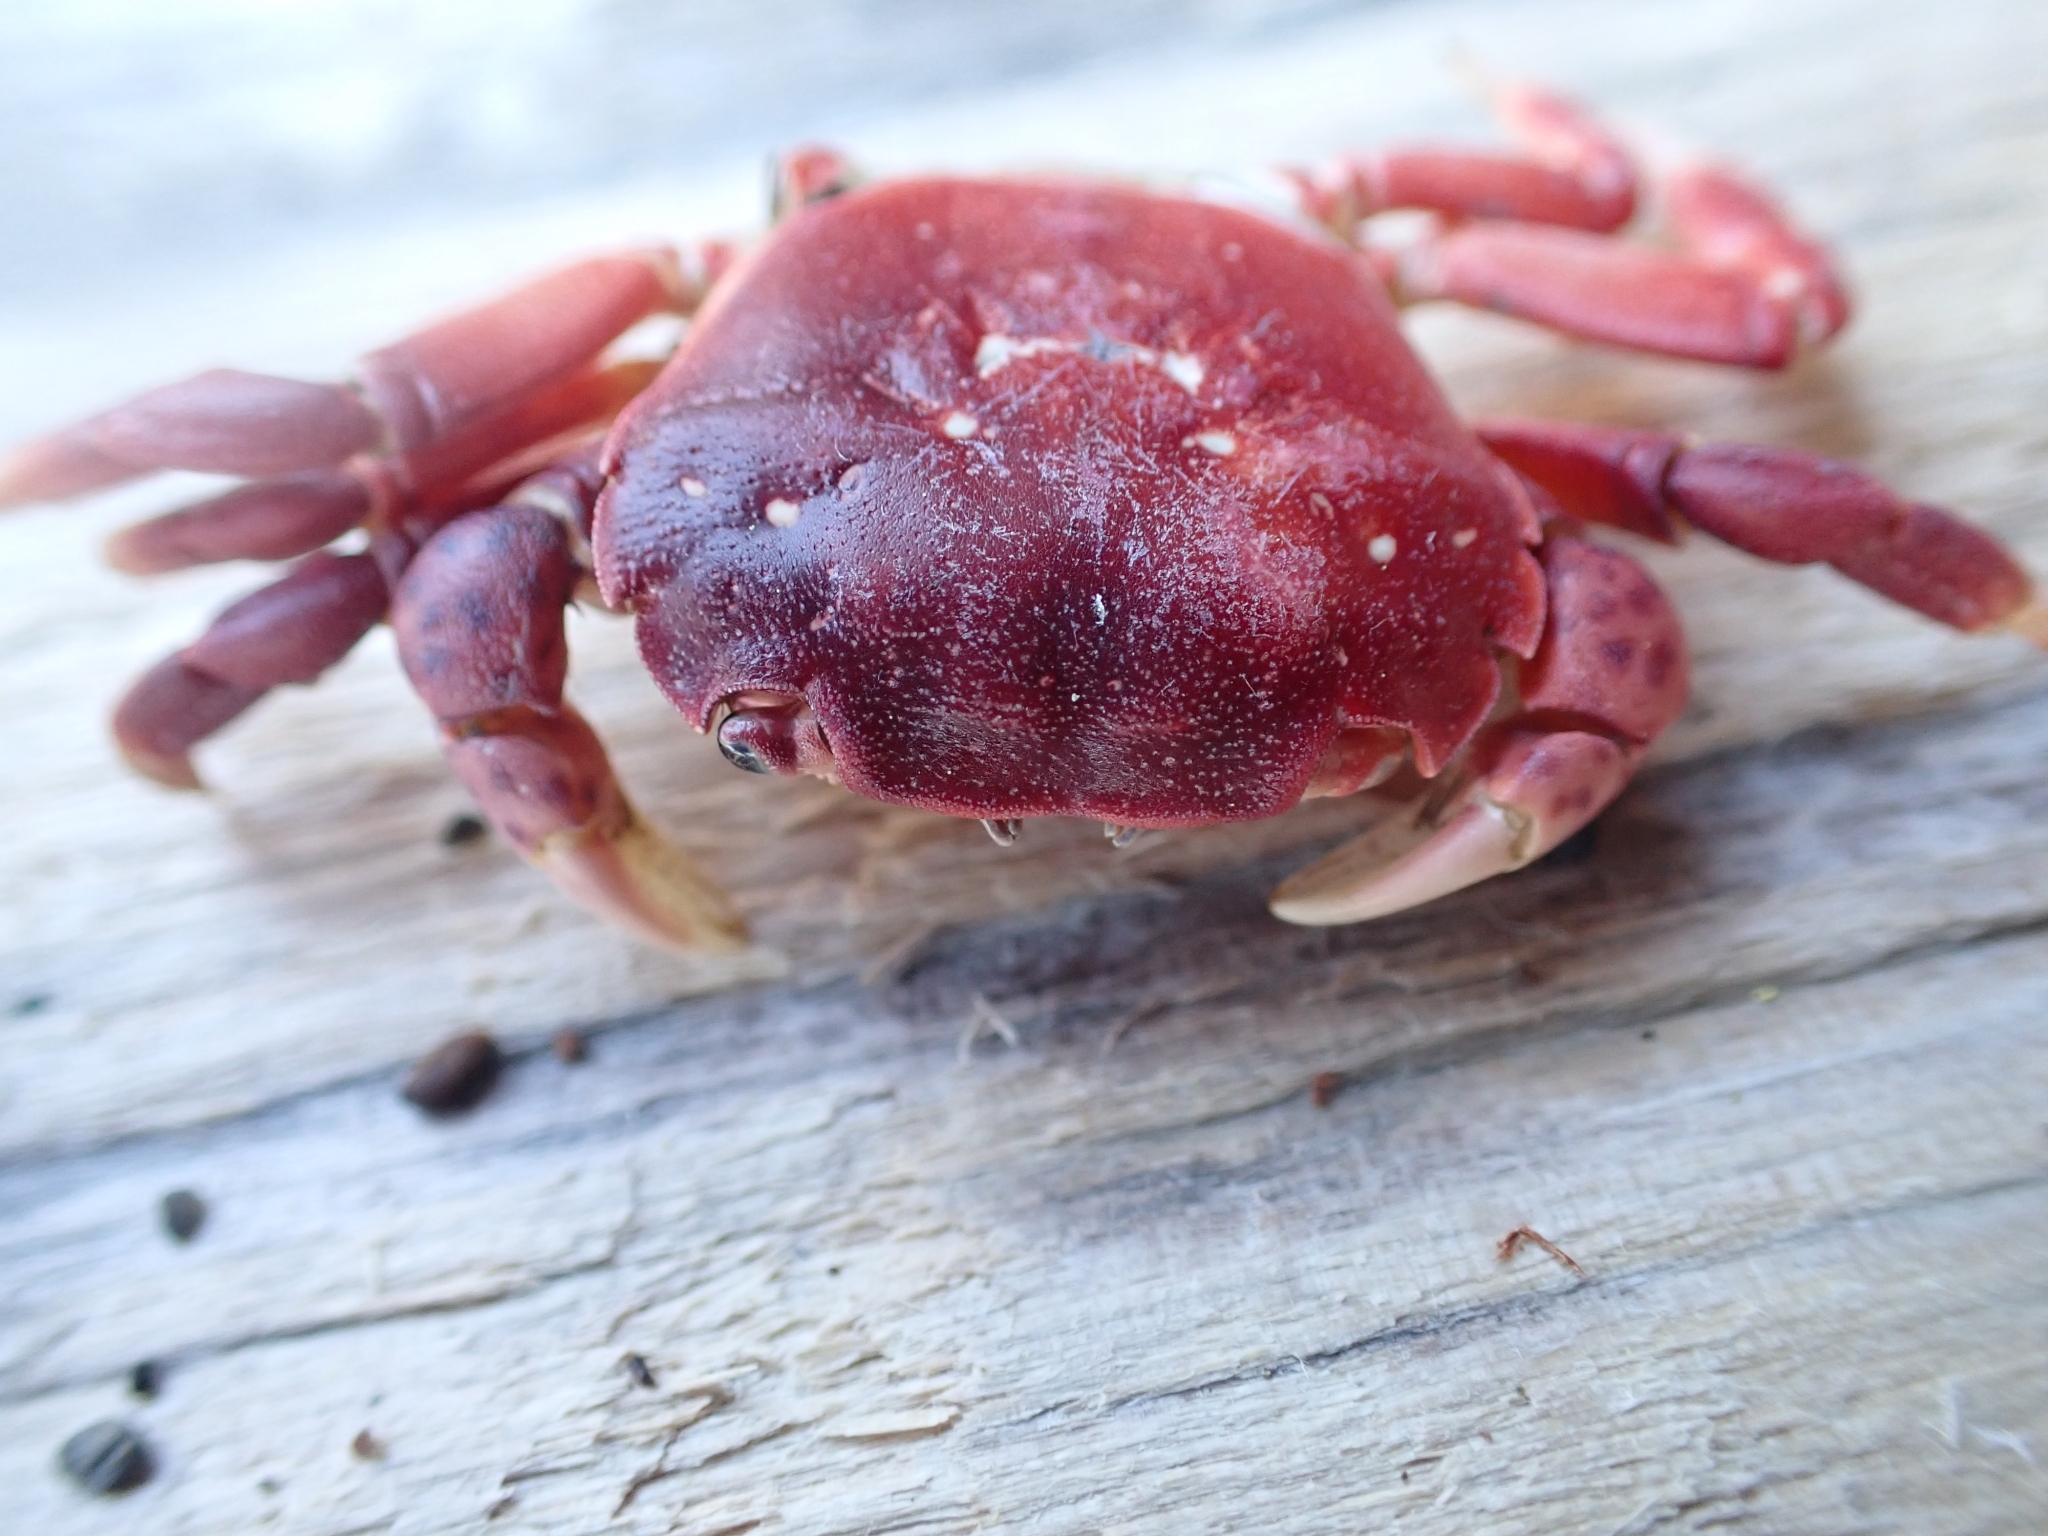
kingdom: Animalia
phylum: Arthropoda
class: Malacostraca
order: Decapoda
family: Varunidae
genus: Hemigrapsus
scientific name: Hemigrapsus nudus
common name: Purple shore crab
